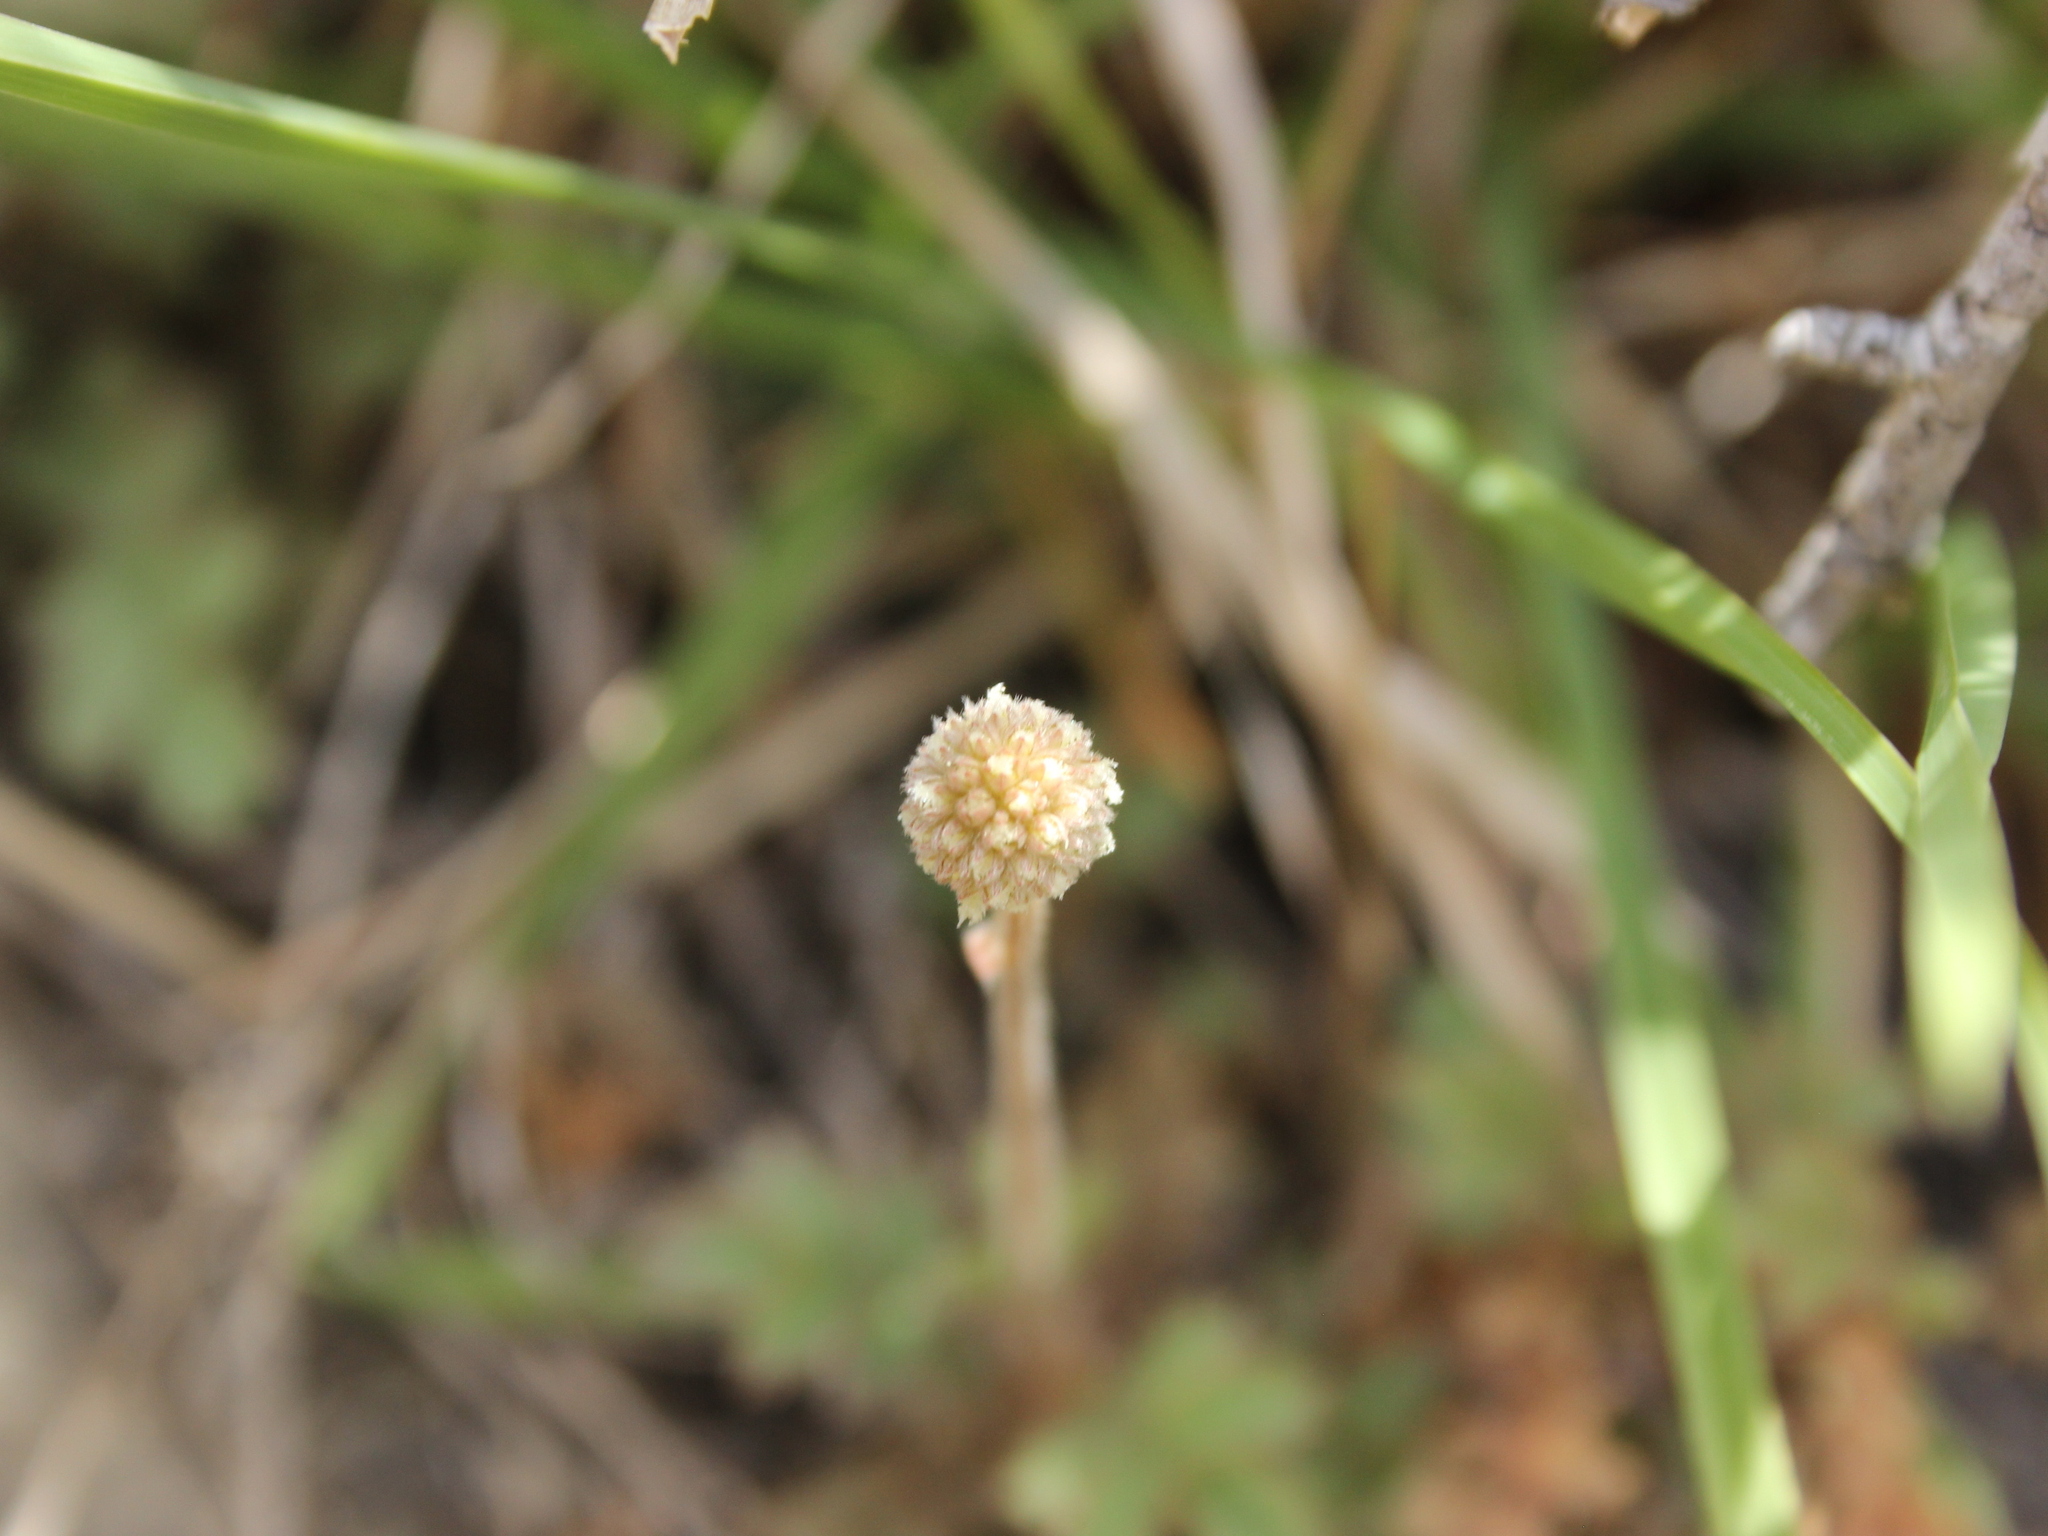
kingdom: Plantae
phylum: Tracheophyta
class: Magnoliopsida
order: Rosales
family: Rosaceae
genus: Acaena
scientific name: Acaena caesiiglauca
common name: Glaucous pirri-pirri-bur
